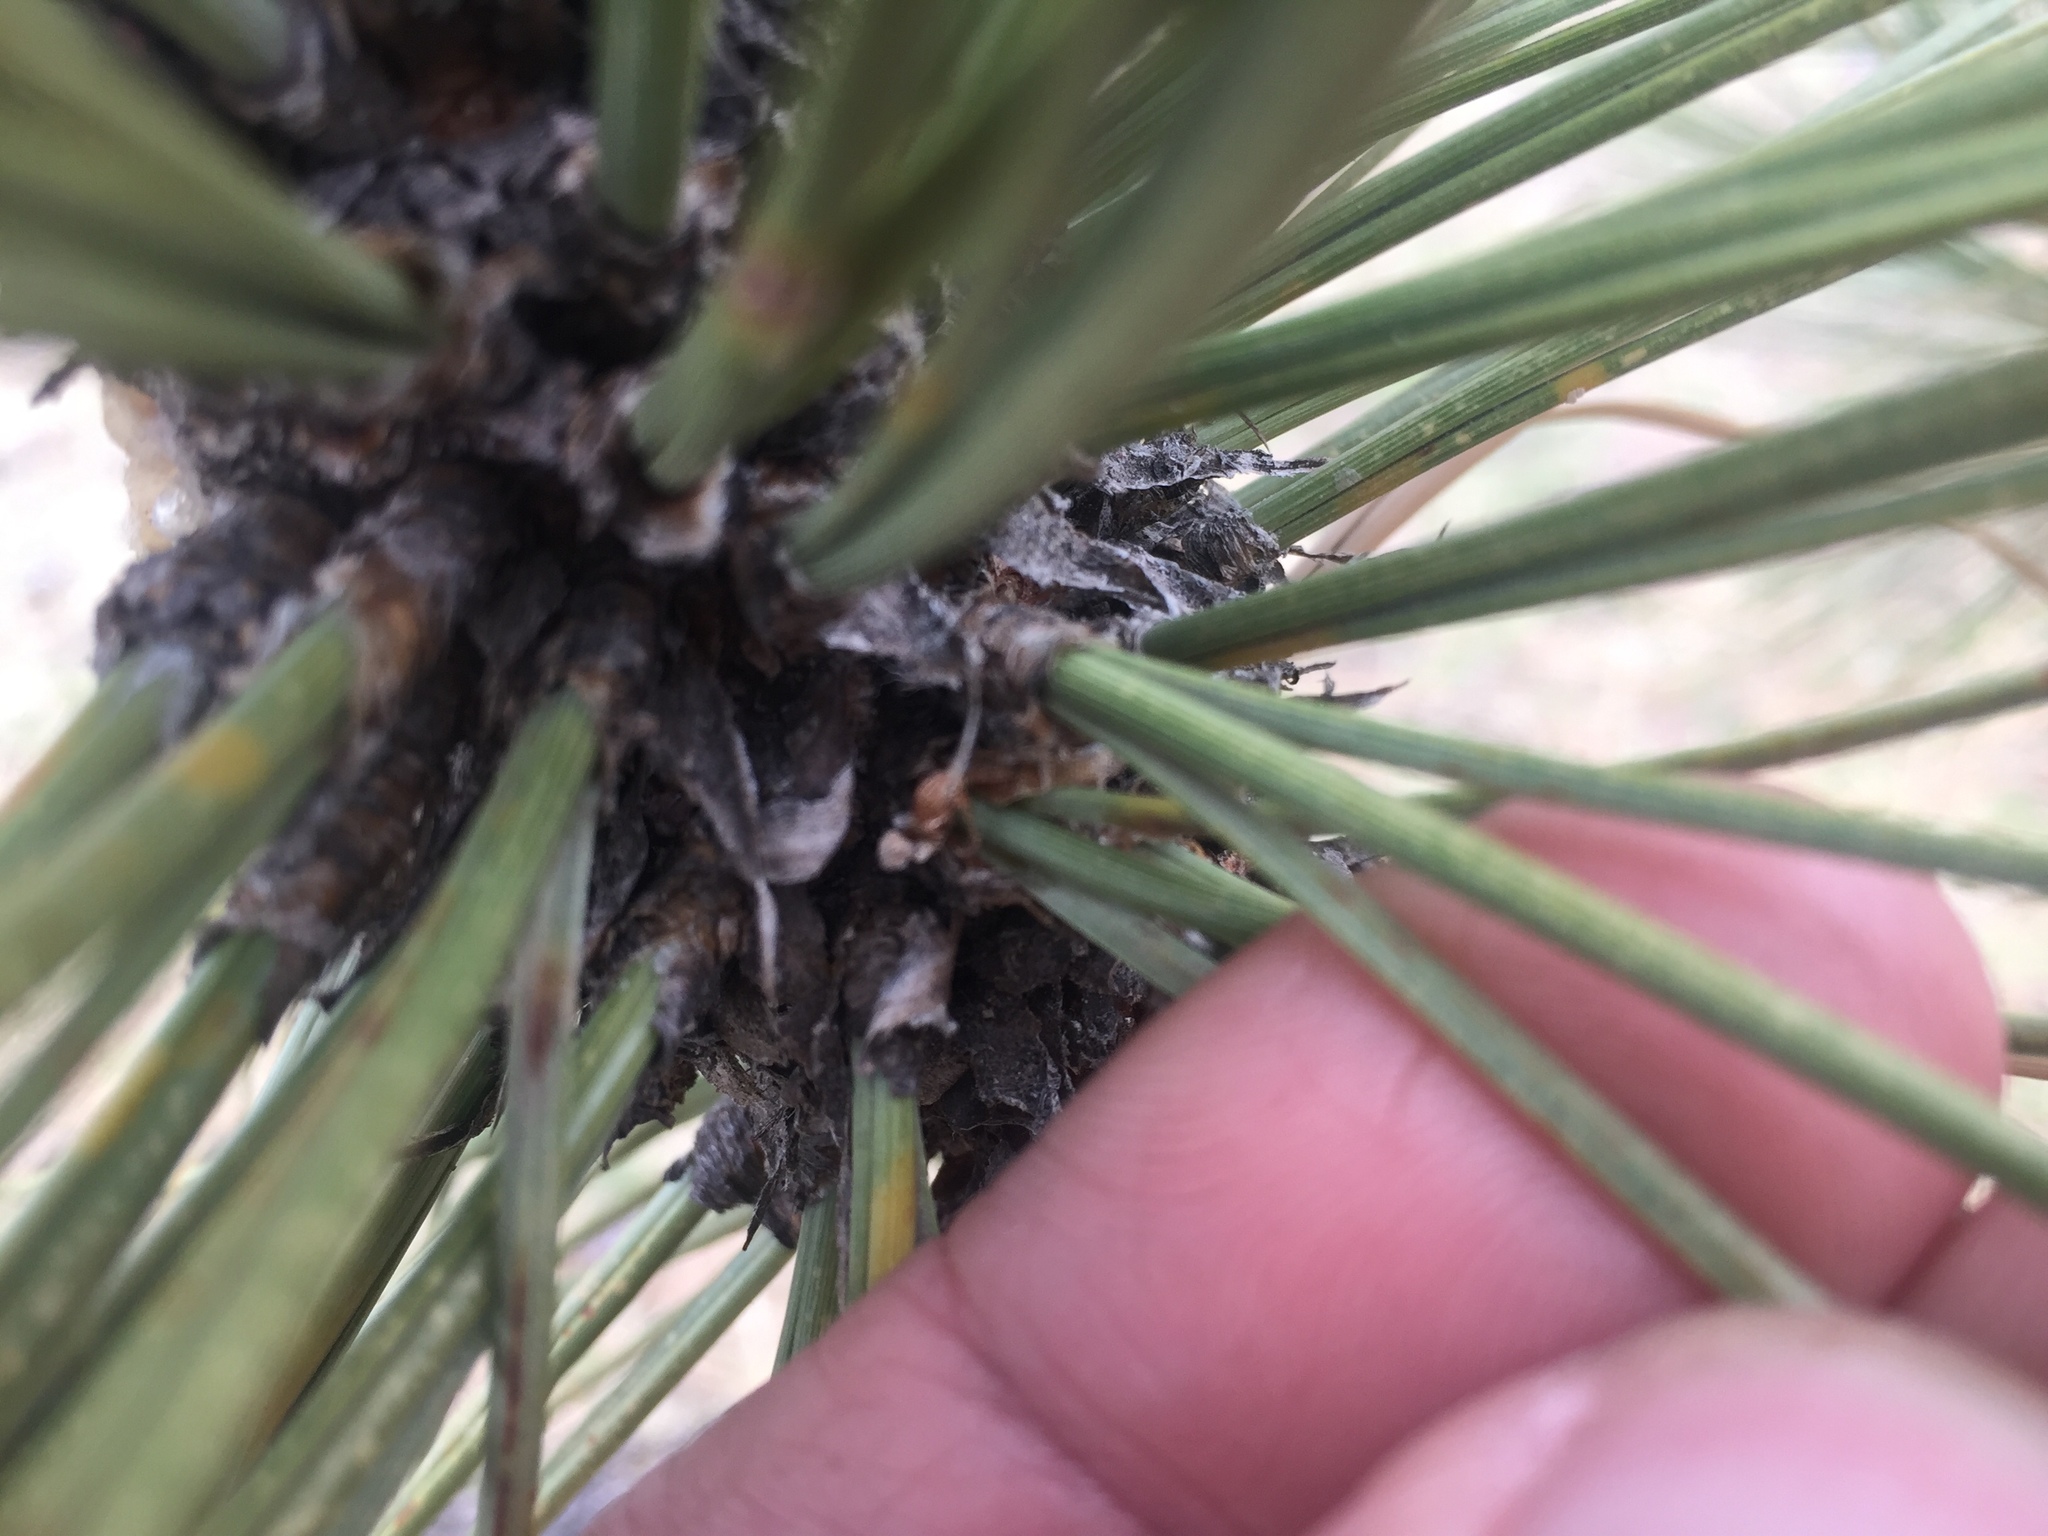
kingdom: Plantae
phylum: Tracheophyta
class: Pinopsida
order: Pinales
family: Pinaceae
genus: Pinus
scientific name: Pinus jeffreyi
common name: Jeffrey pine
